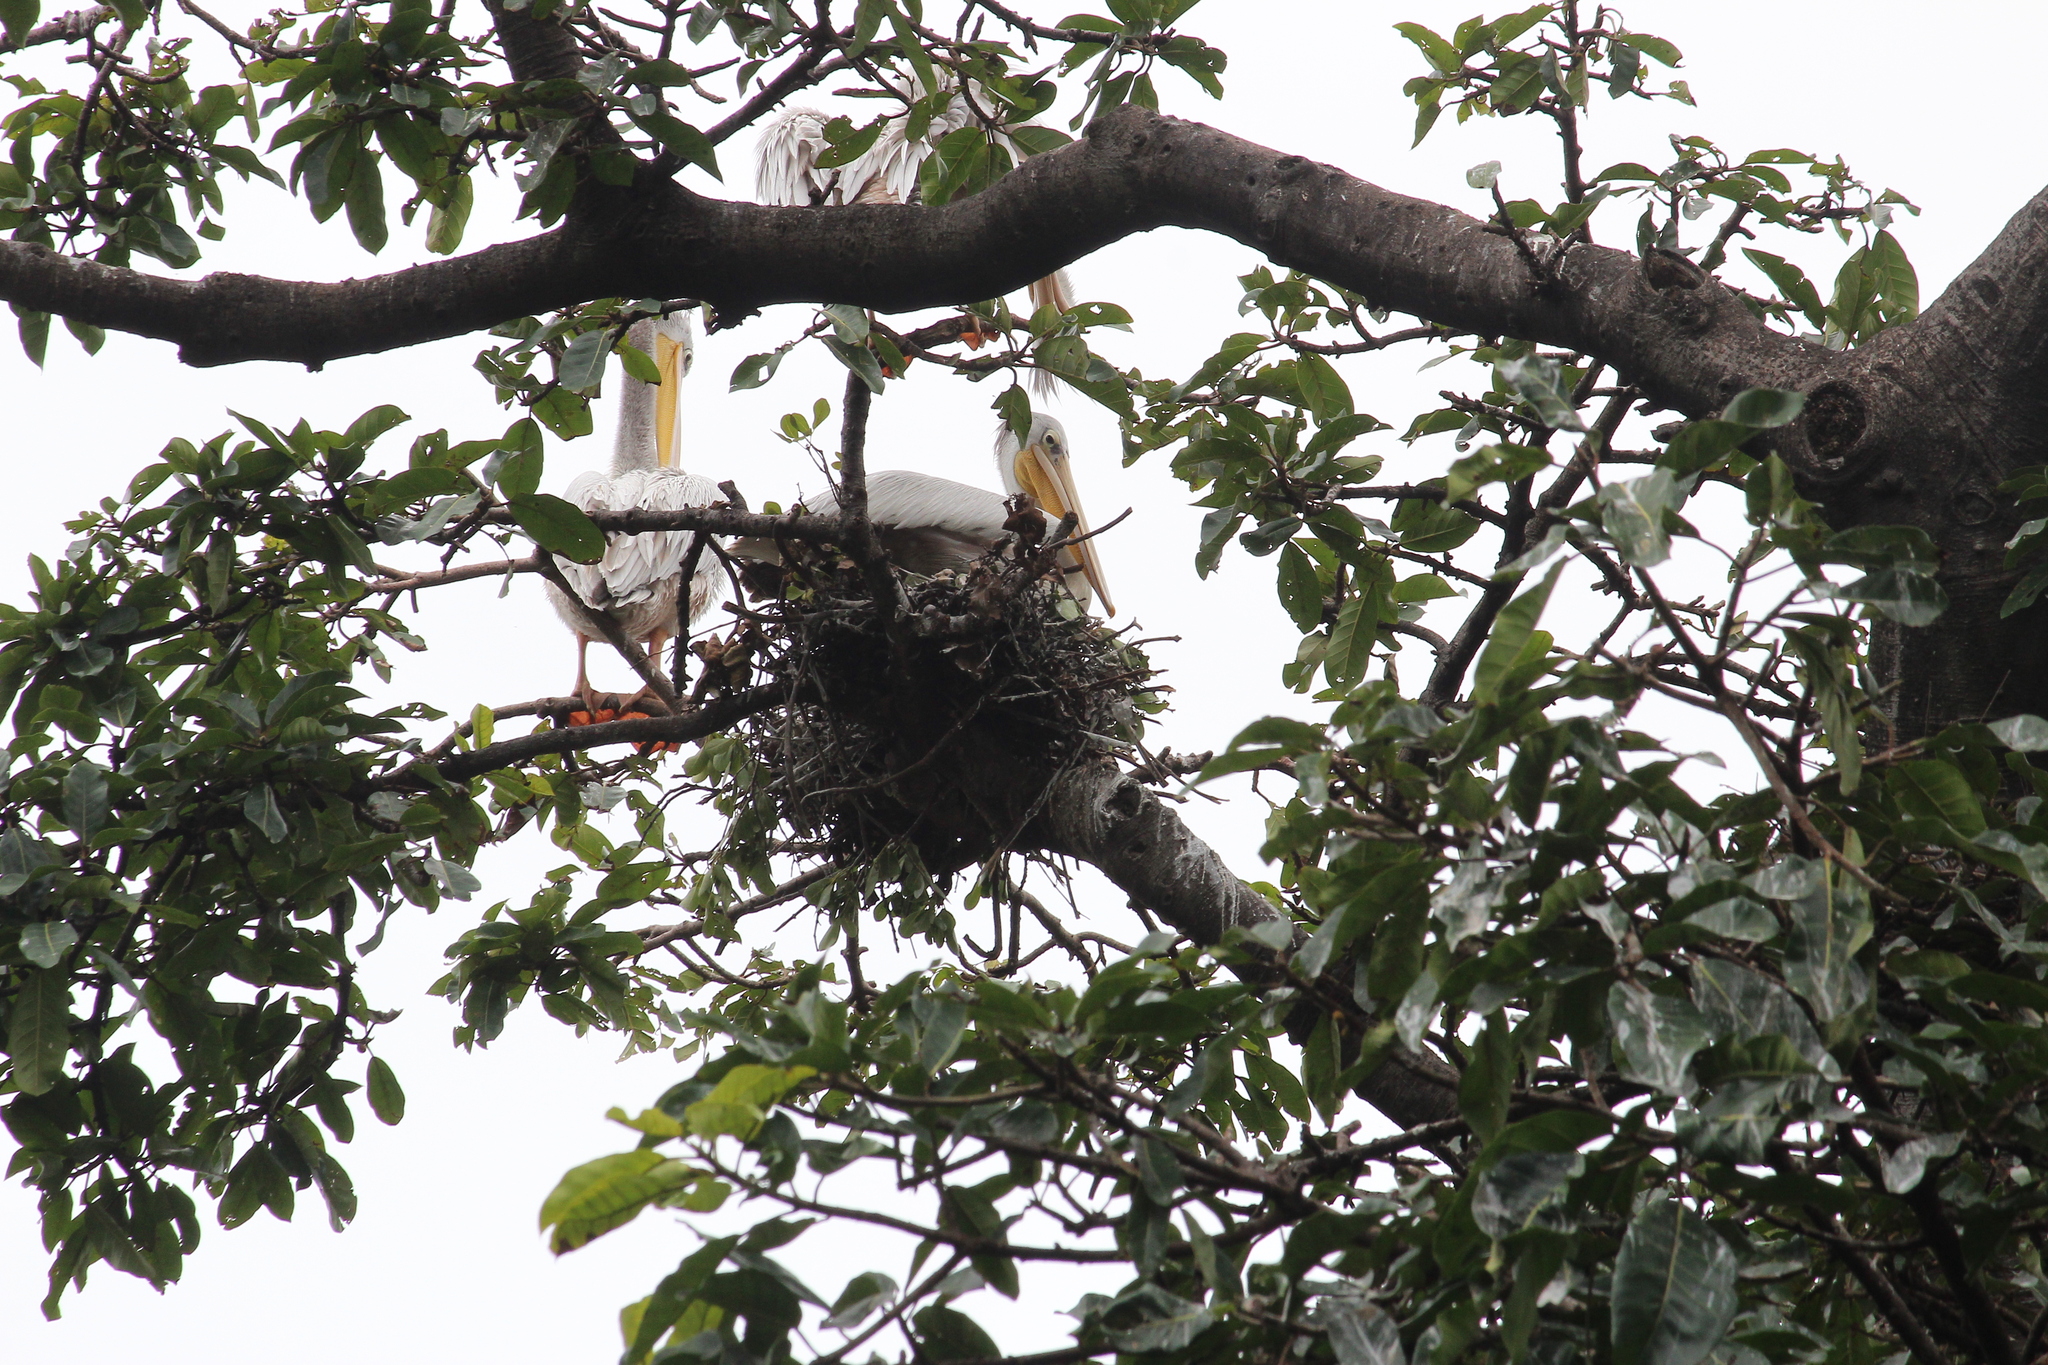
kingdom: Animalia
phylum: Chordata
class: Aves
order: Pelecaniformes
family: Pelecanidae
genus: Pelecanus
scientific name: Pelecanus rufescens
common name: Pink-backed pelican
